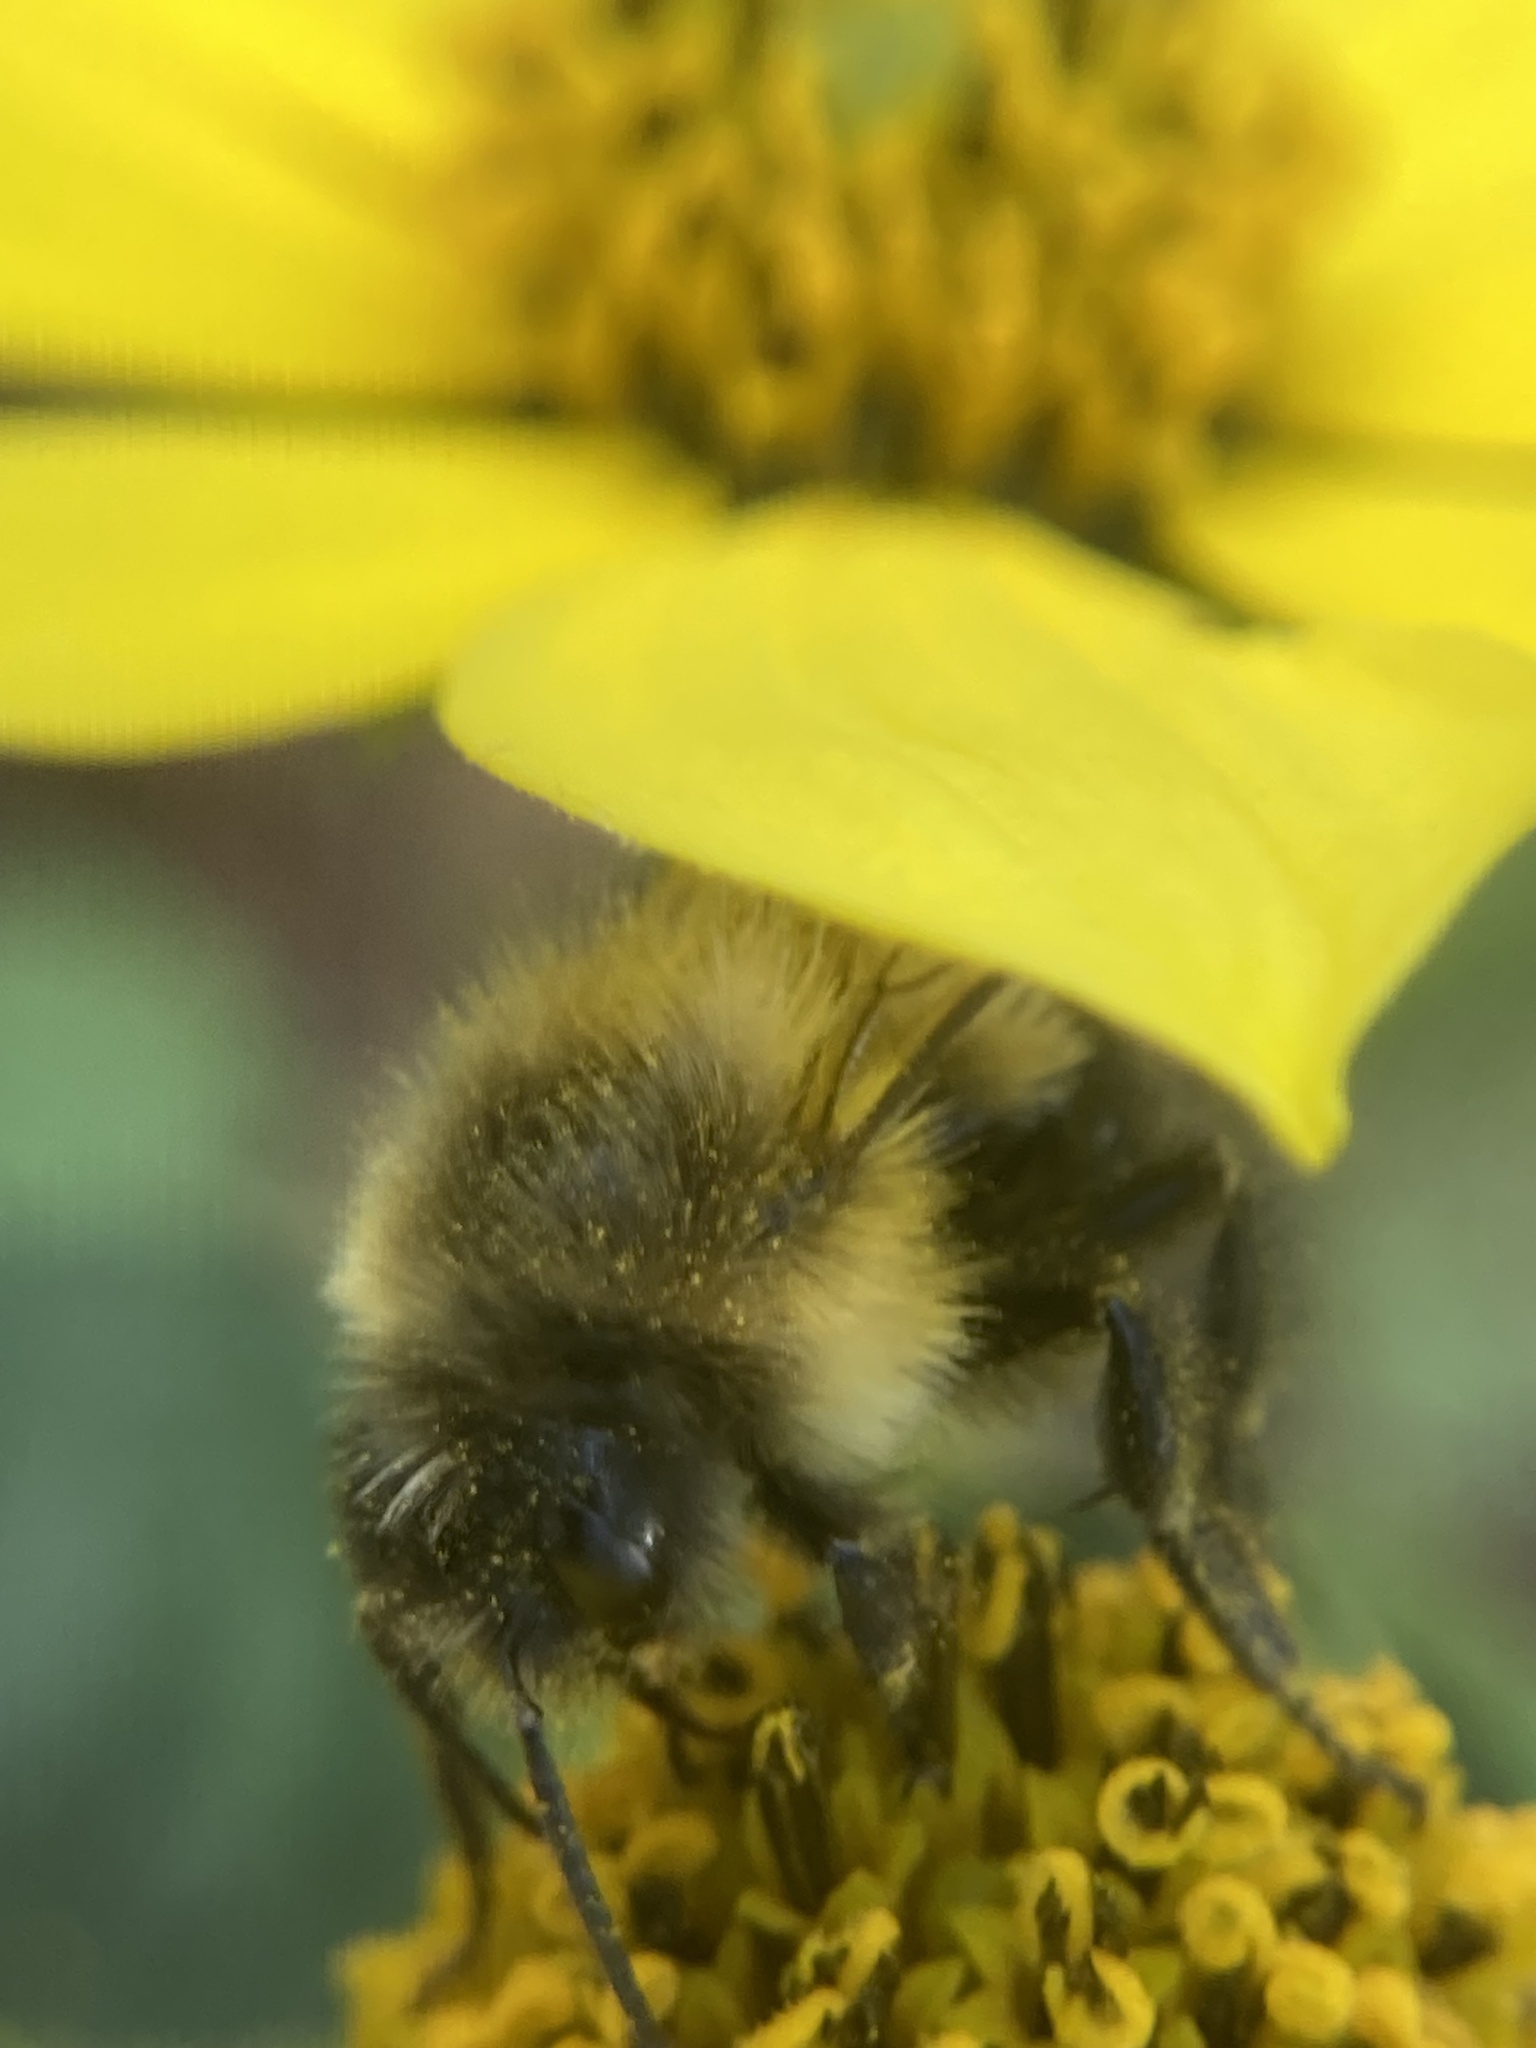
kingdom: Animalia
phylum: Arthropoda
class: Insecta
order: Hymenoptera
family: Apidae
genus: Bombus
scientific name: Bombus impatiens
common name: Common eastern bumble bee
